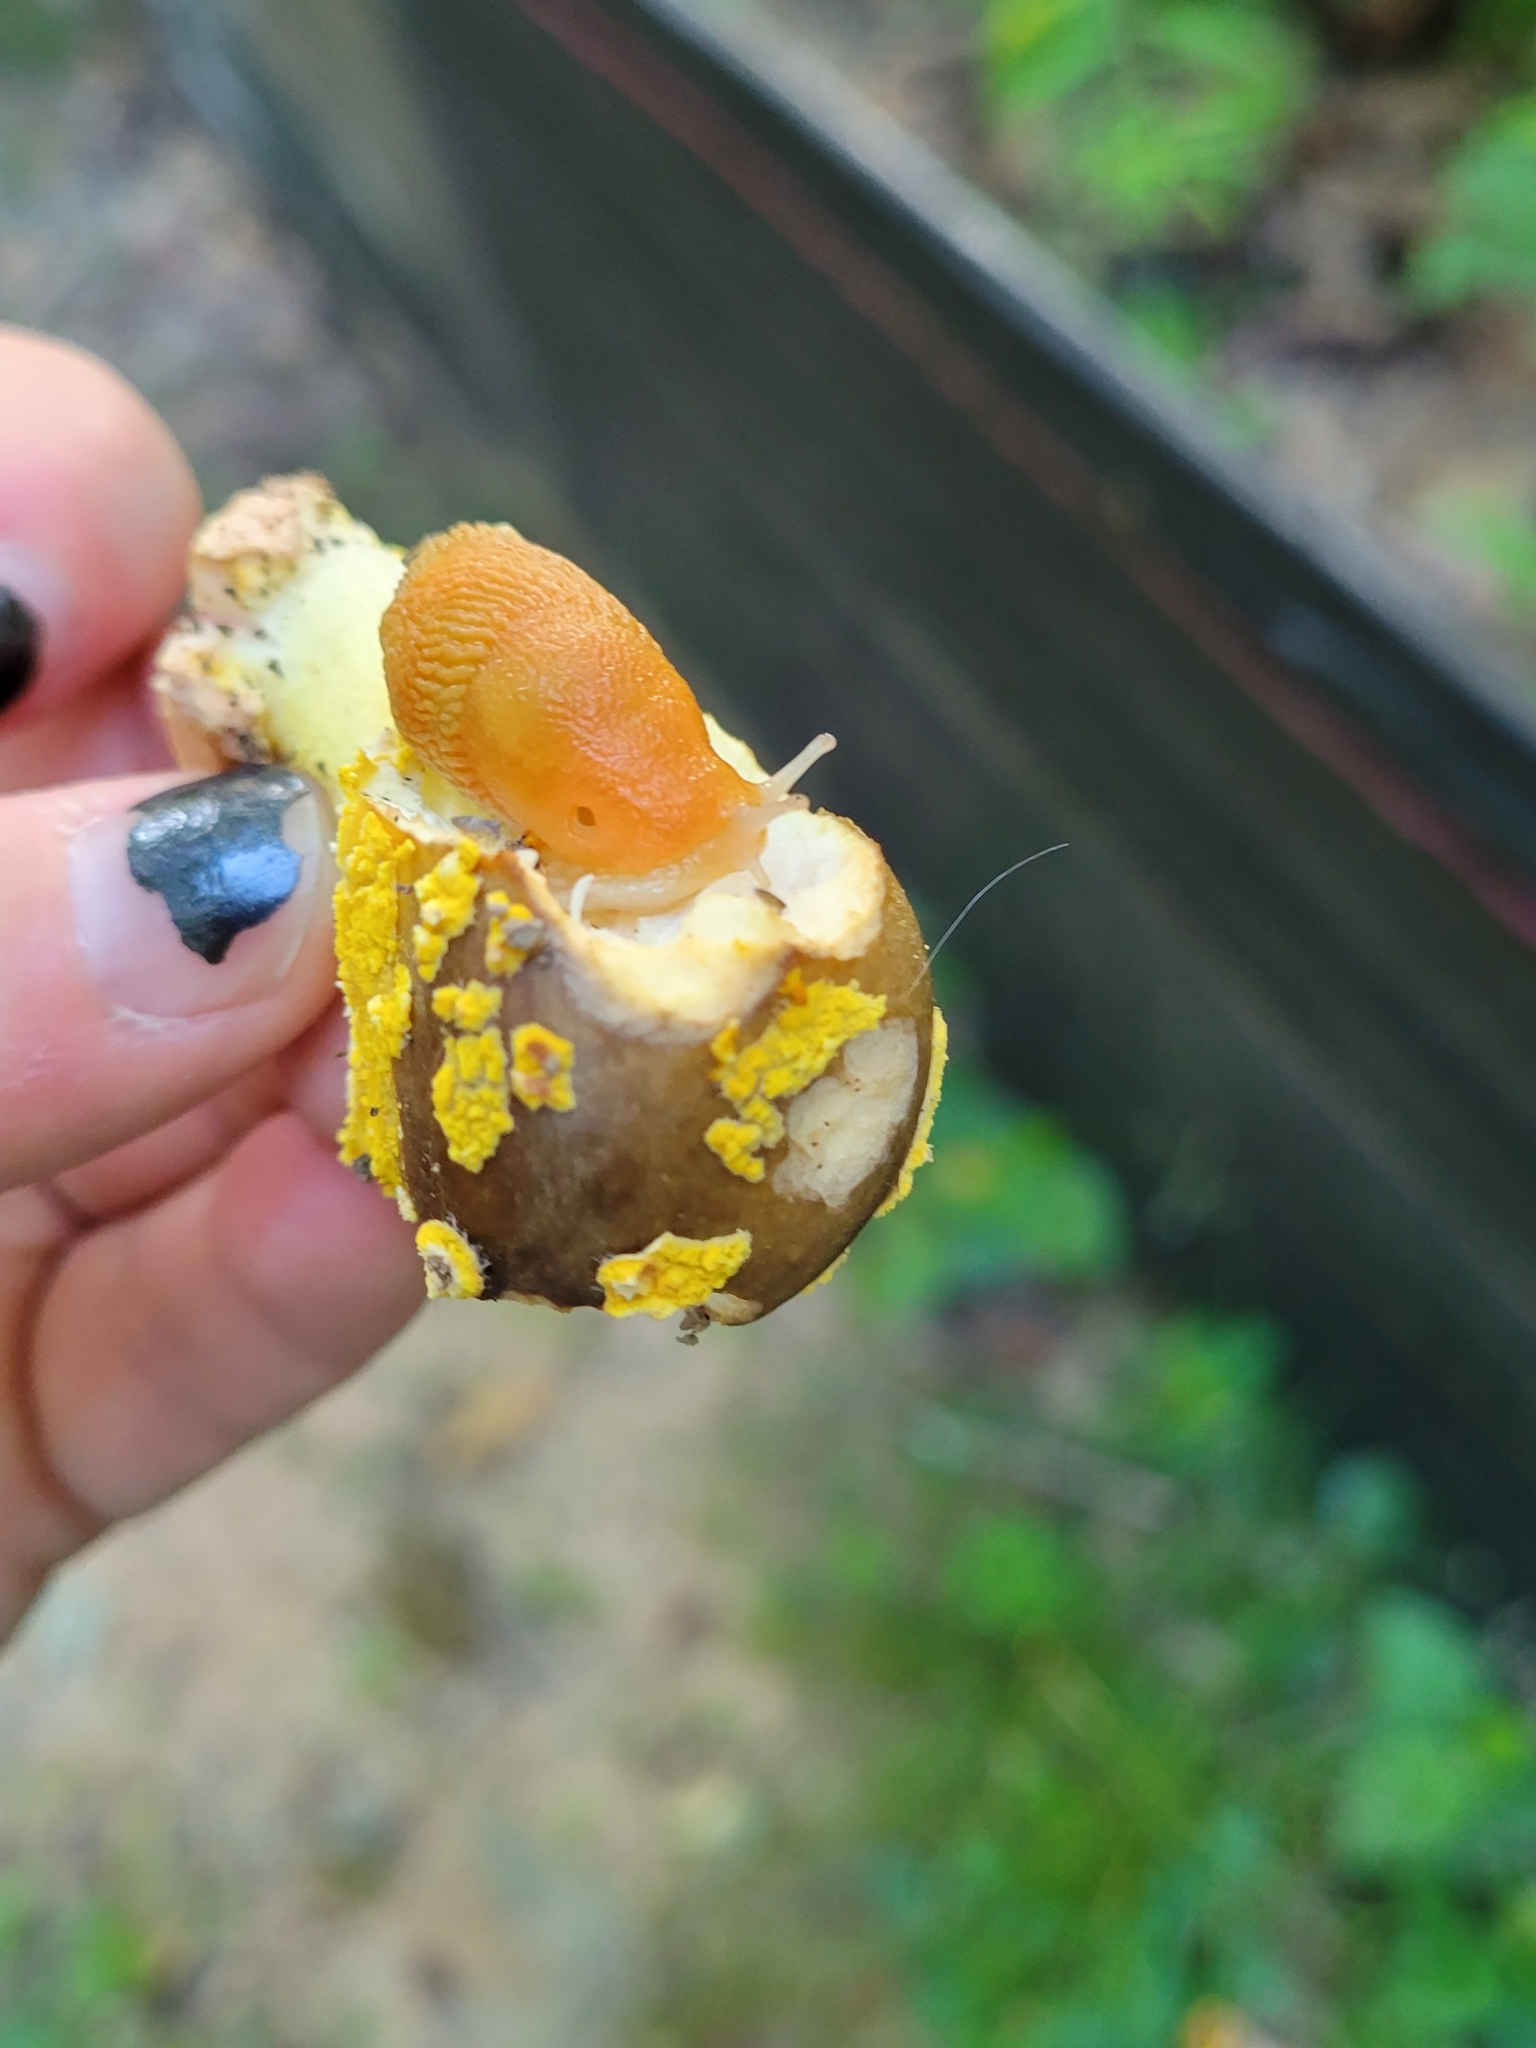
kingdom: Animalia
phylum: Mollusca
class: Gastropoda
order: Stylommatophora
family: Arionidae
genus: Arion
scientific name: Arion subfuscus
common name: Dusky arion
